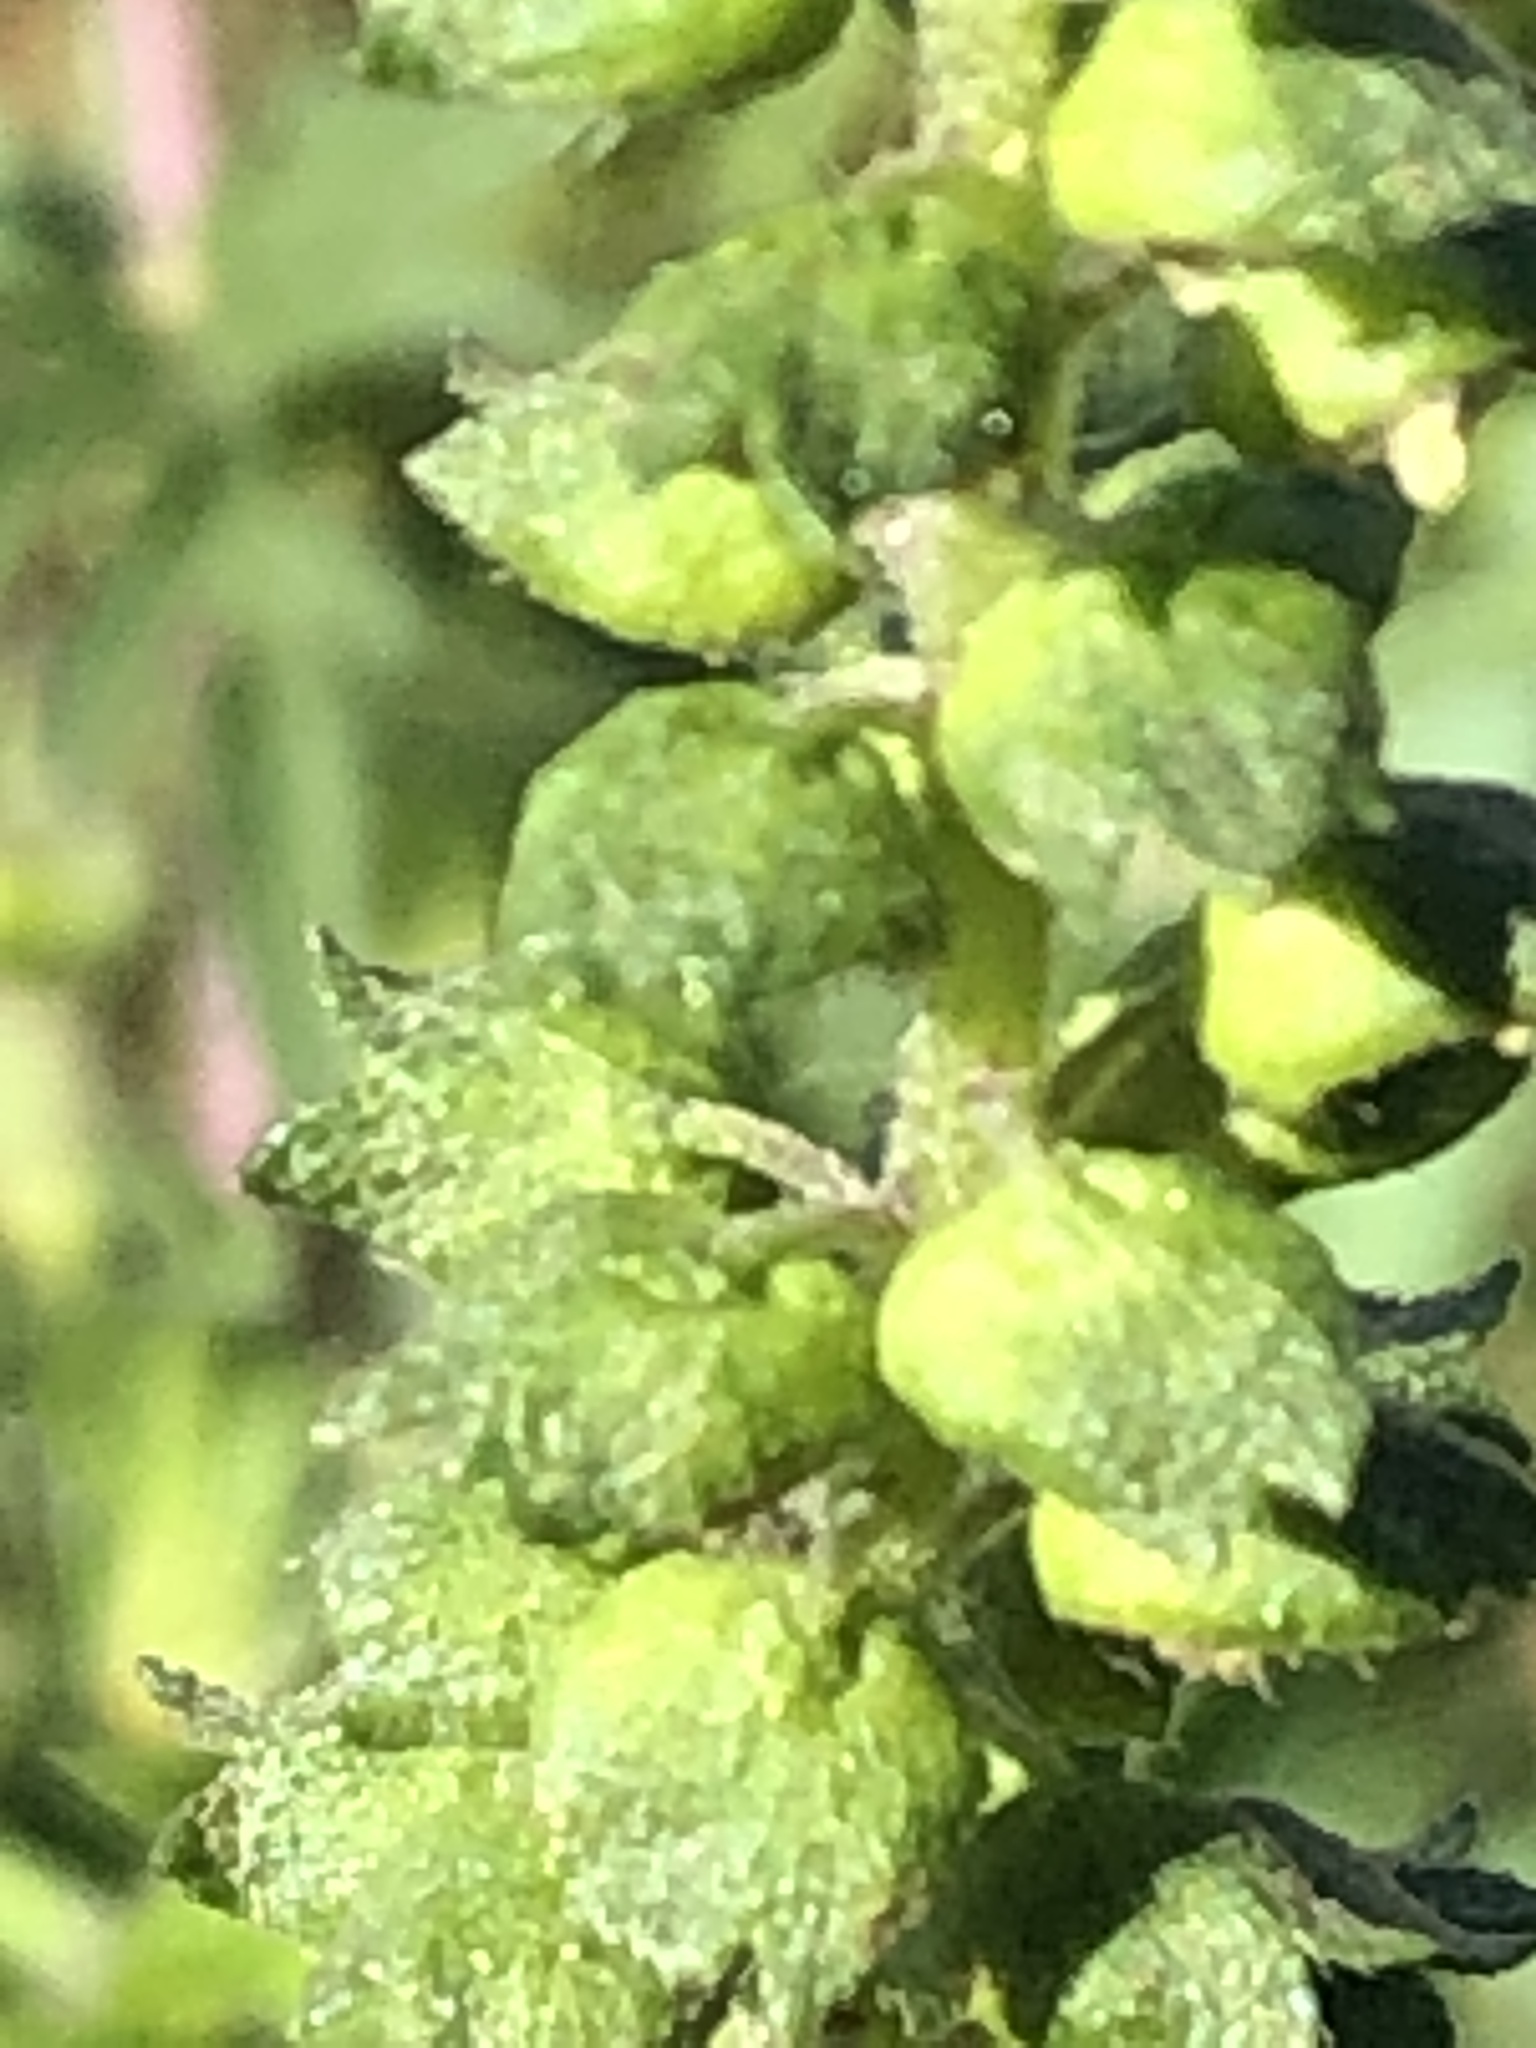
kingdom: Plantae
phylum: Tracheophyta
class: Magnoliopsida
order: Asterales
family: Asteraceae
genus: Ambrosia
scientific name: Ambrosia artemisiifolia
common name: Annual ragweed
